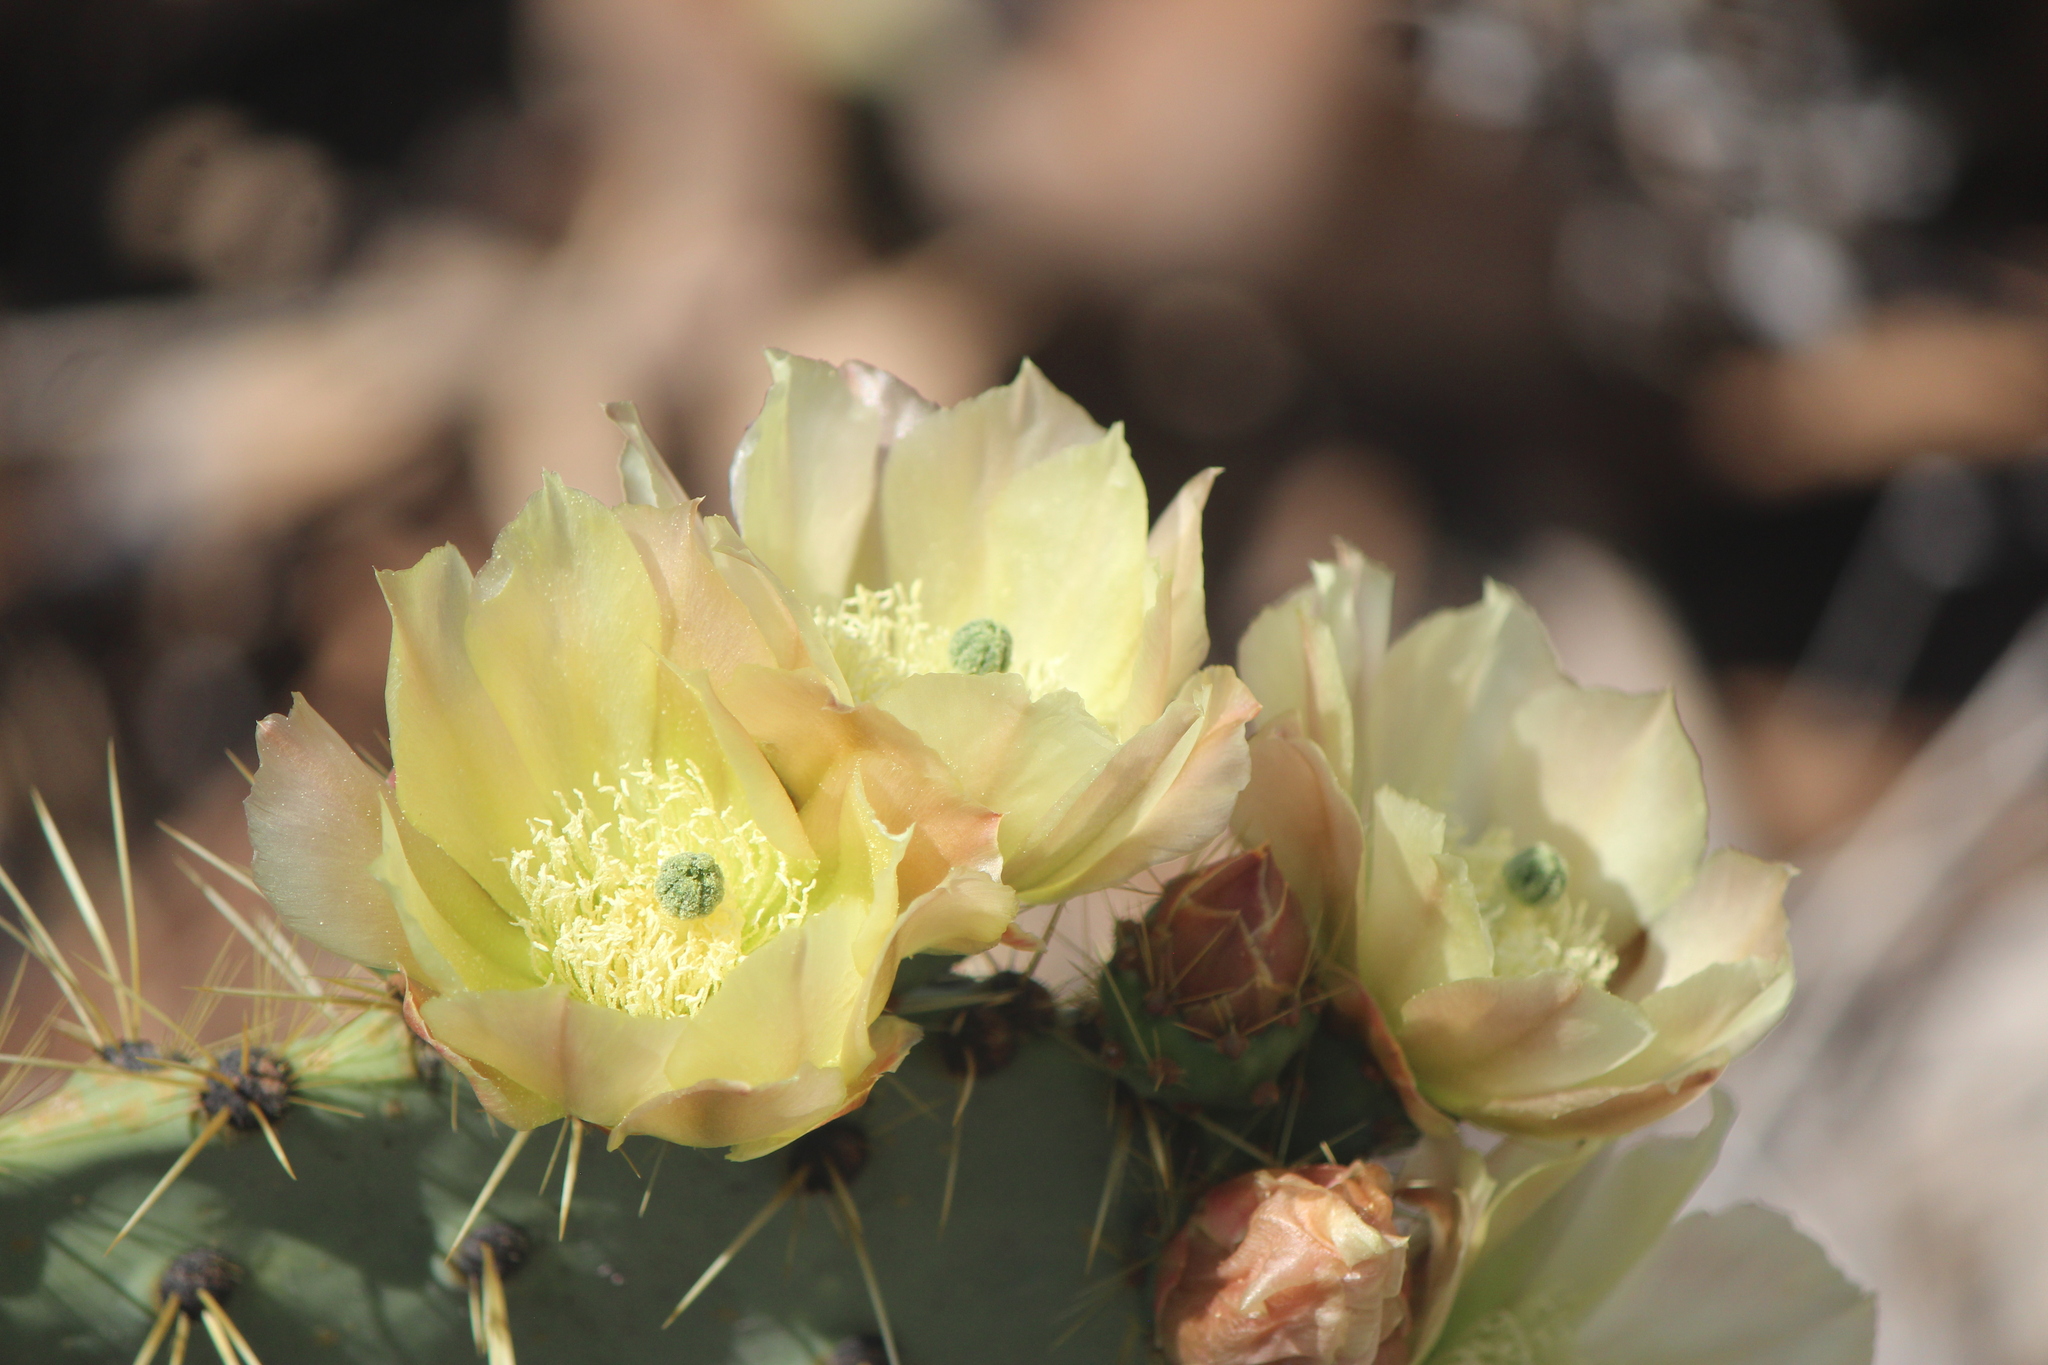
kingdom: Plantae
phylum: Tracheophyta
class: Magnoliopsida
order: Caryophyllales
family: Cactaceae
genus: Opuntia
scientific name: Opuntia robusta
